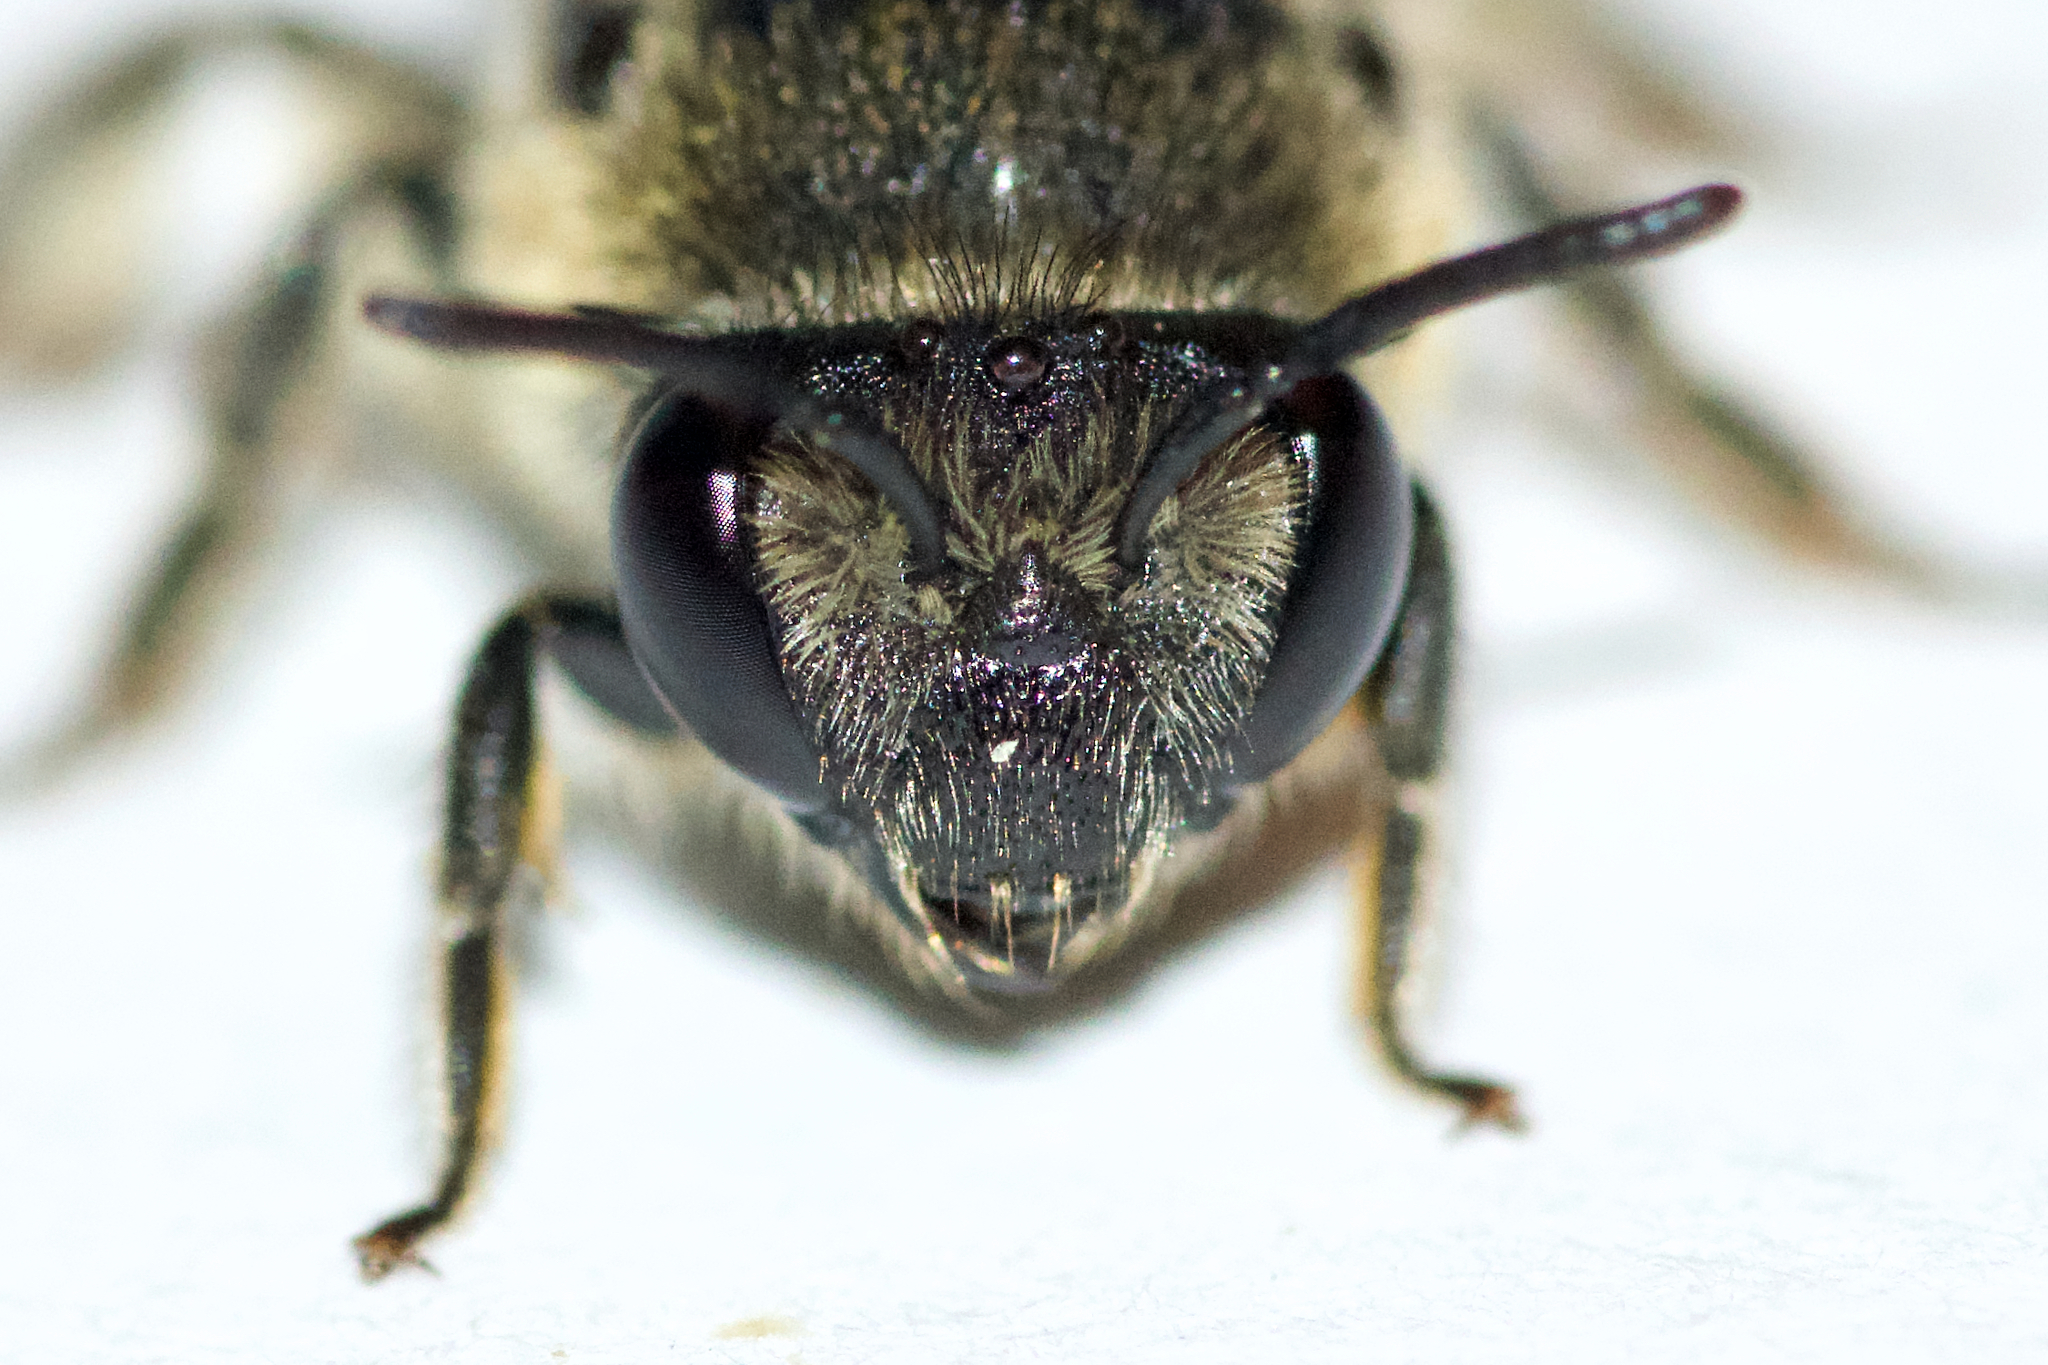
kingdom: Animalia
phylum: Arthropoda
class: Insecta
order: Hymenoptera
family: Colletidae
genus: Colletes
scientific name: Colletes simulans
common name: Spine-shouldered cellophane bee
